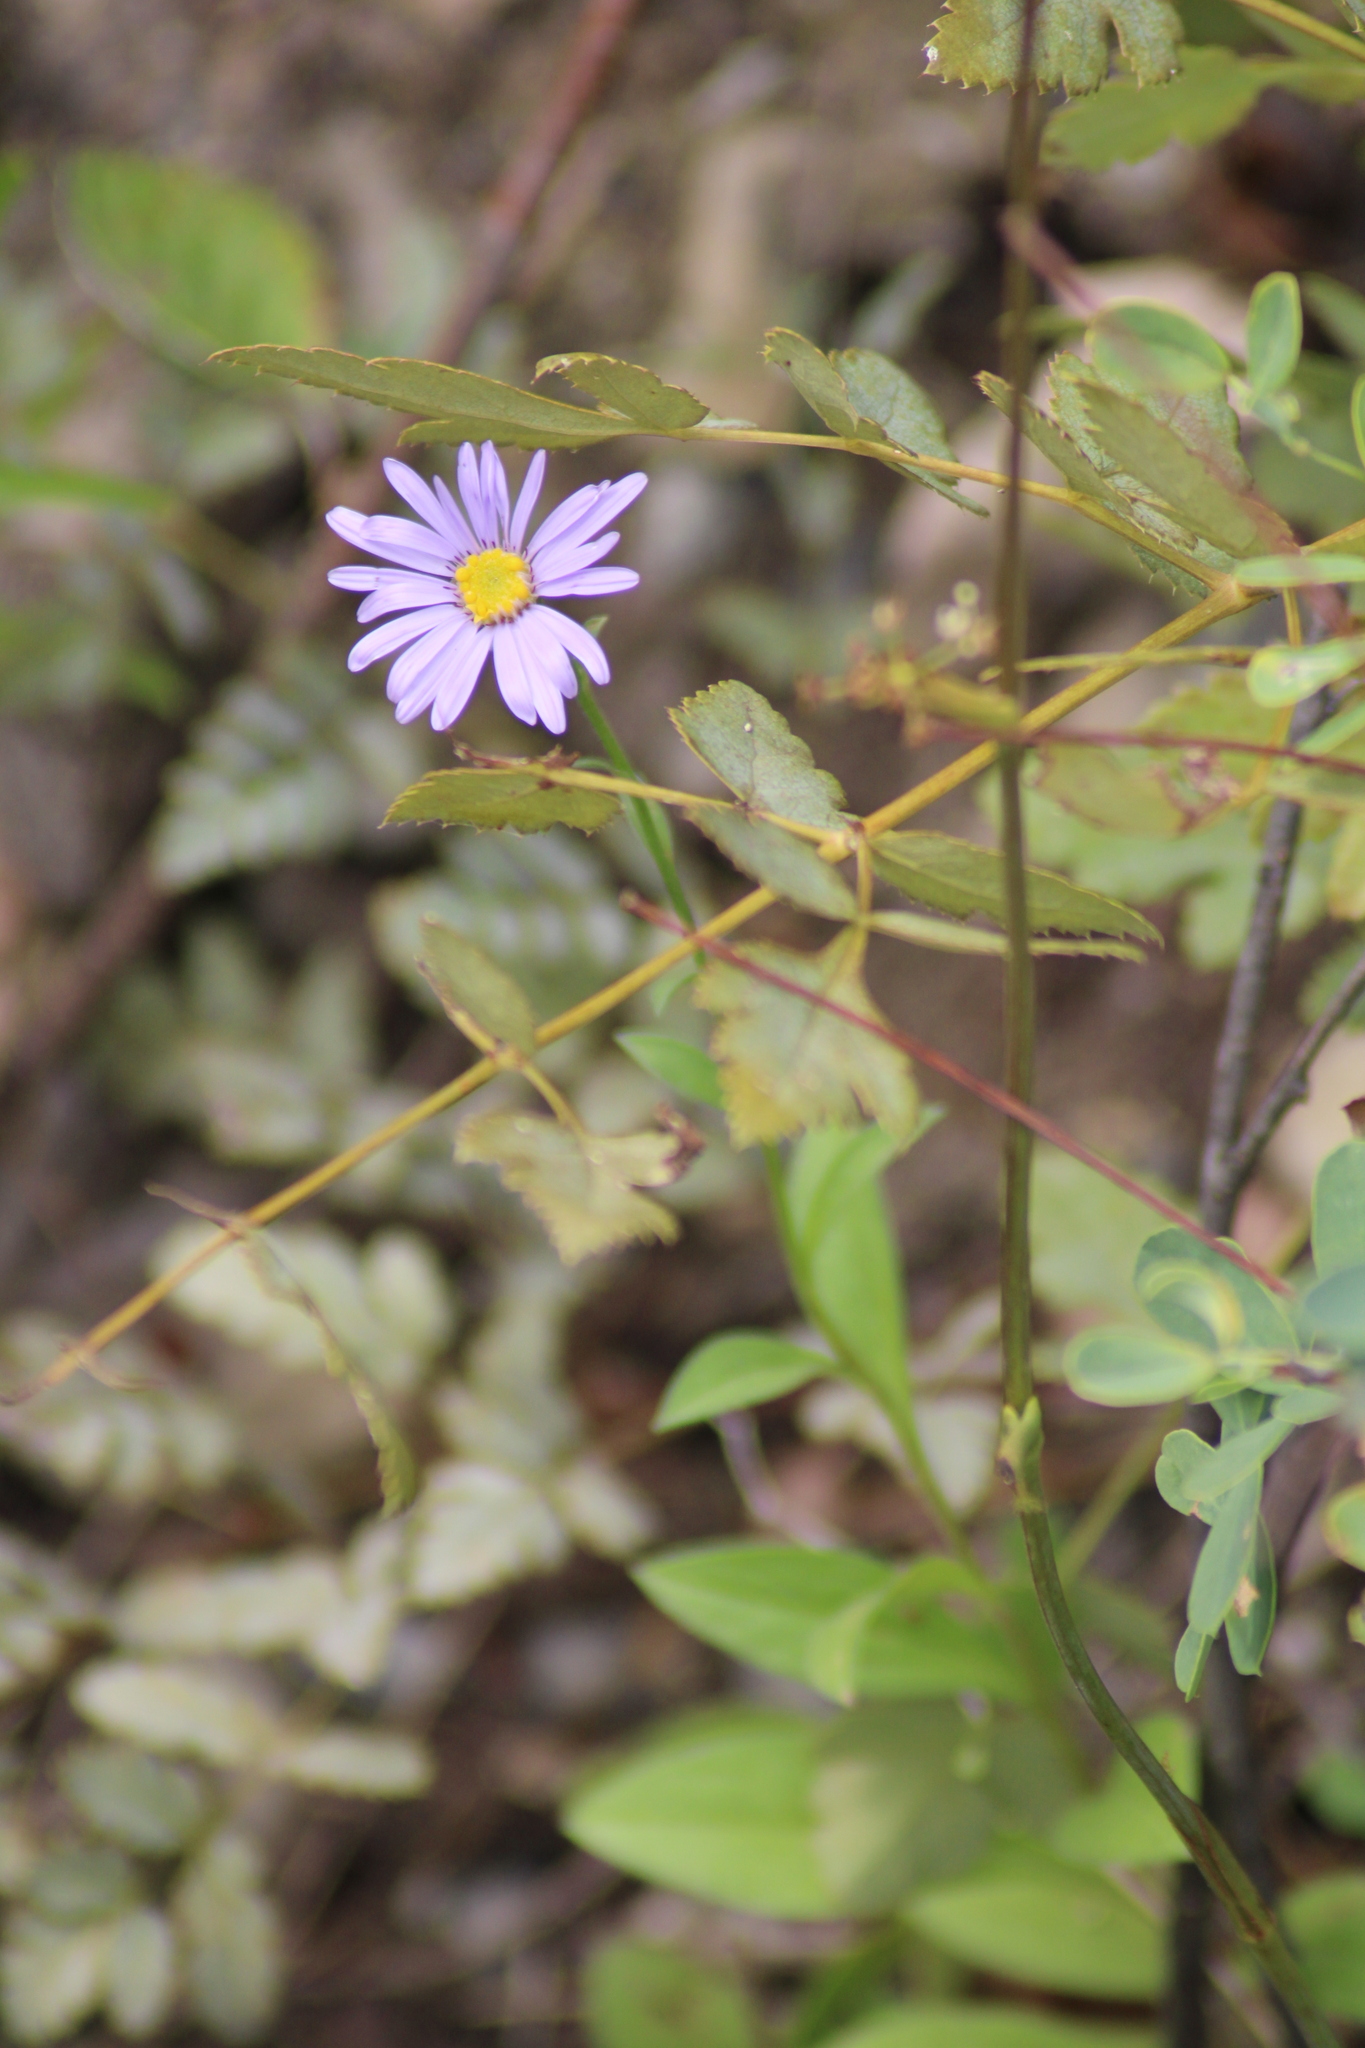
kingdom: Plantae
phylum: Tracheophyta
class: Magnoliopsida
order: Asterales
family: Asteraceae
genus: Aster
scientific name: Aster amellus
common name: European michaelmas daisy
